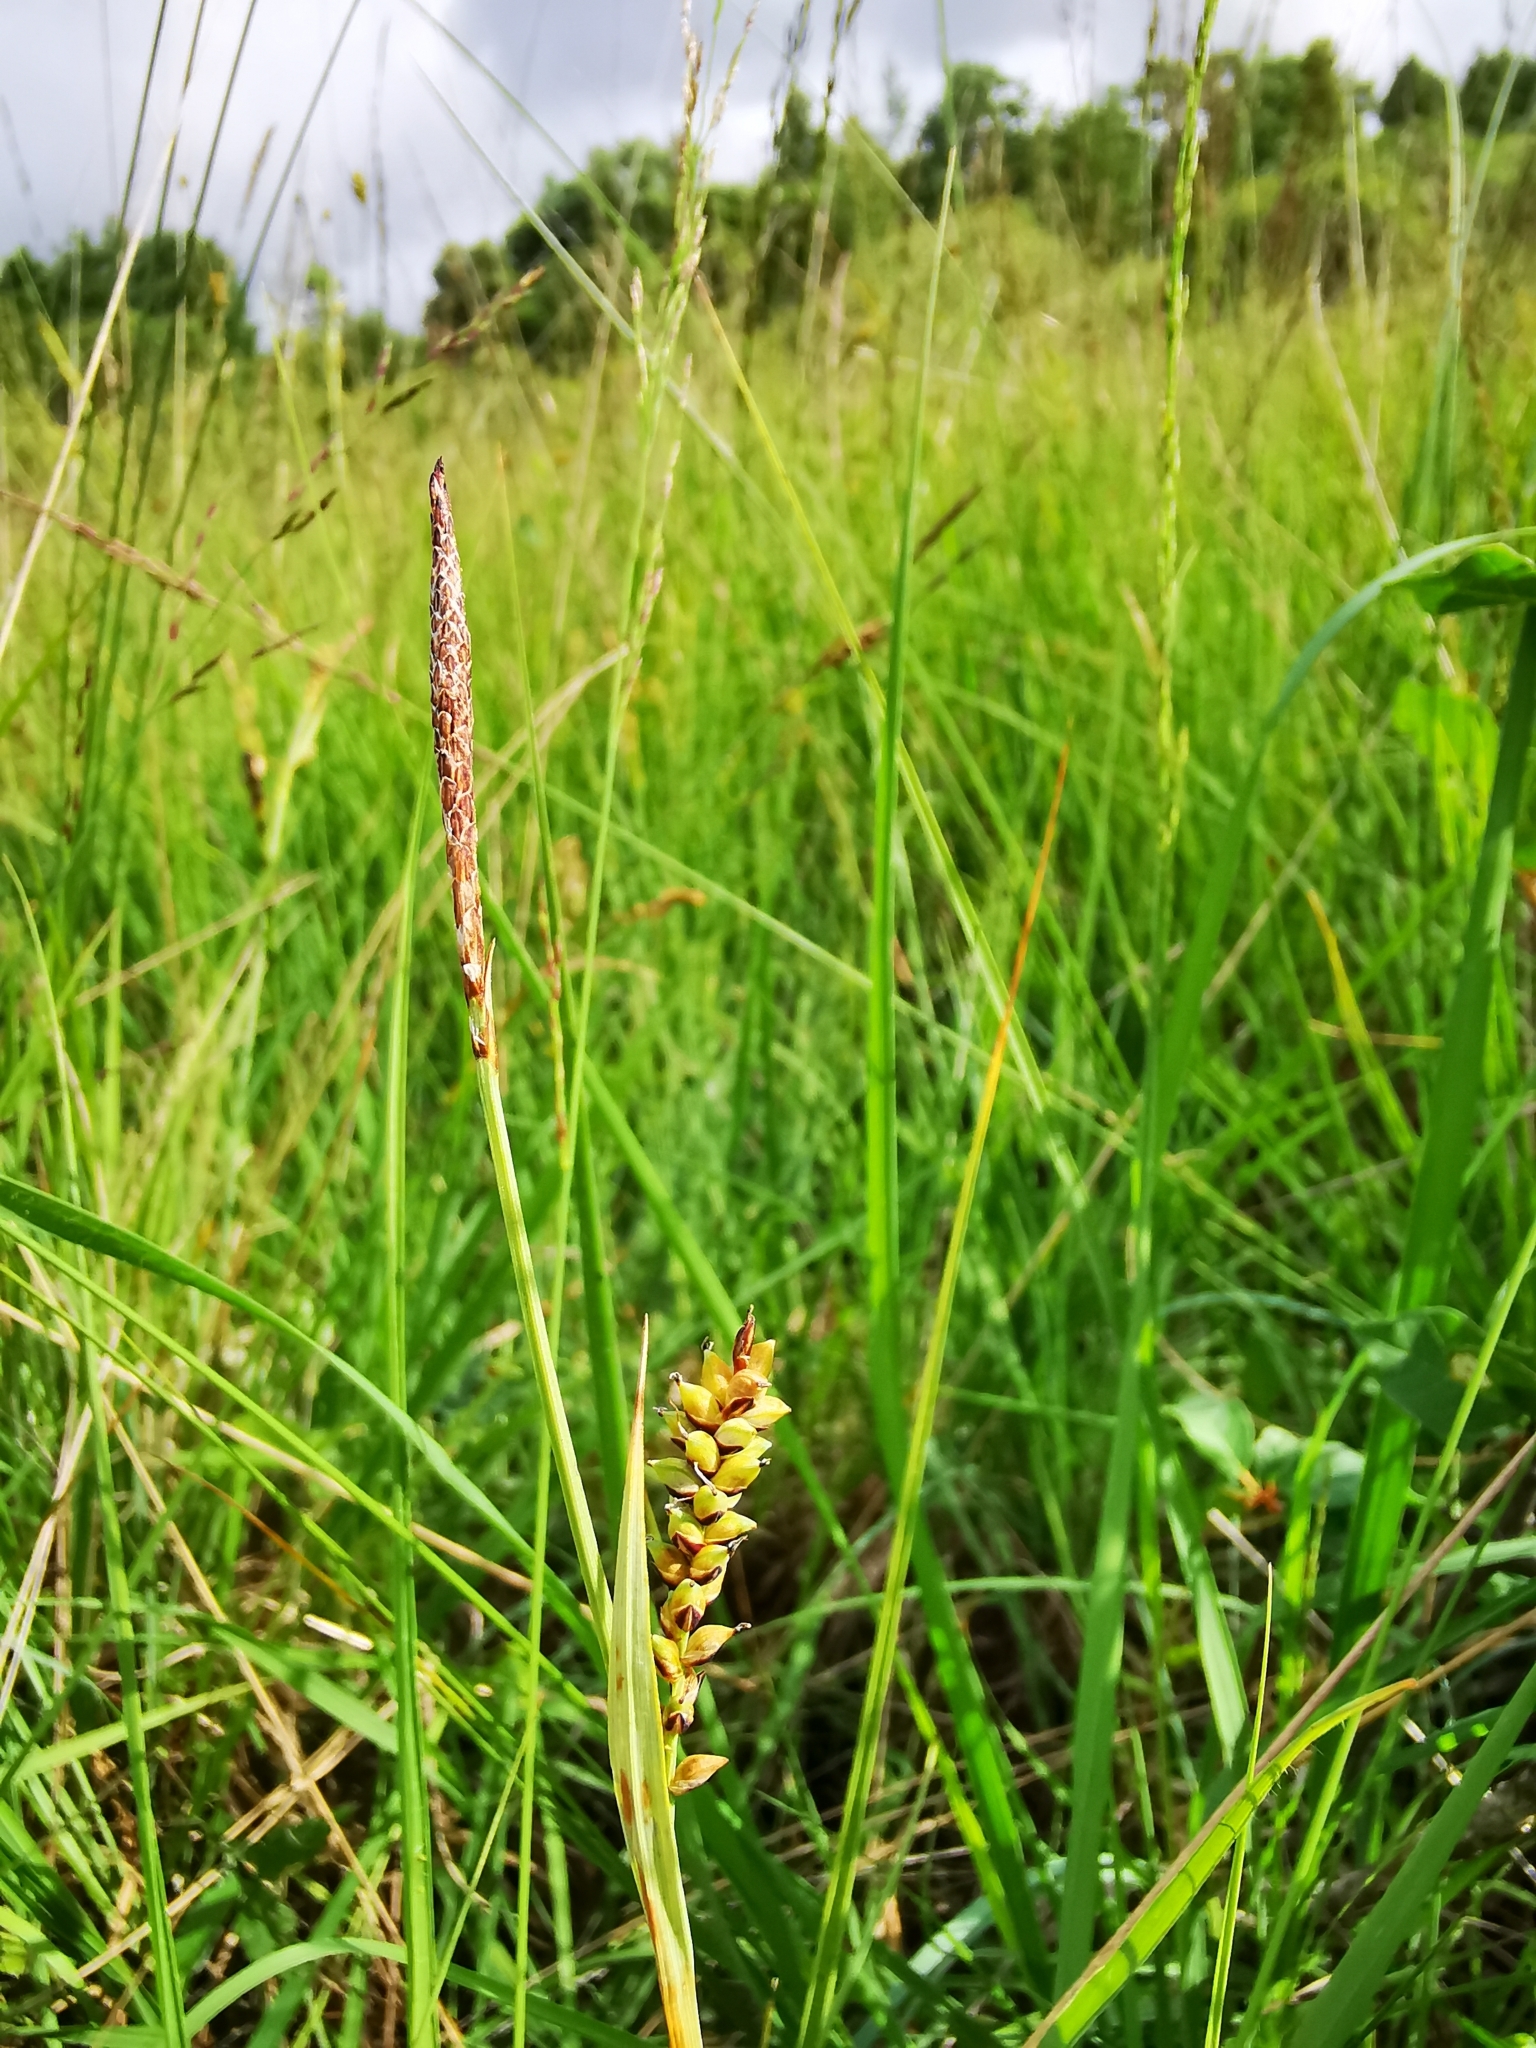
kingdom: Plantae
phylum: Tracheophyta
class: Liliopsida
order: Poales
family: Cyperaceae
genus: Carex
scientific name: Carex panicea
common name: Carnation sedge
